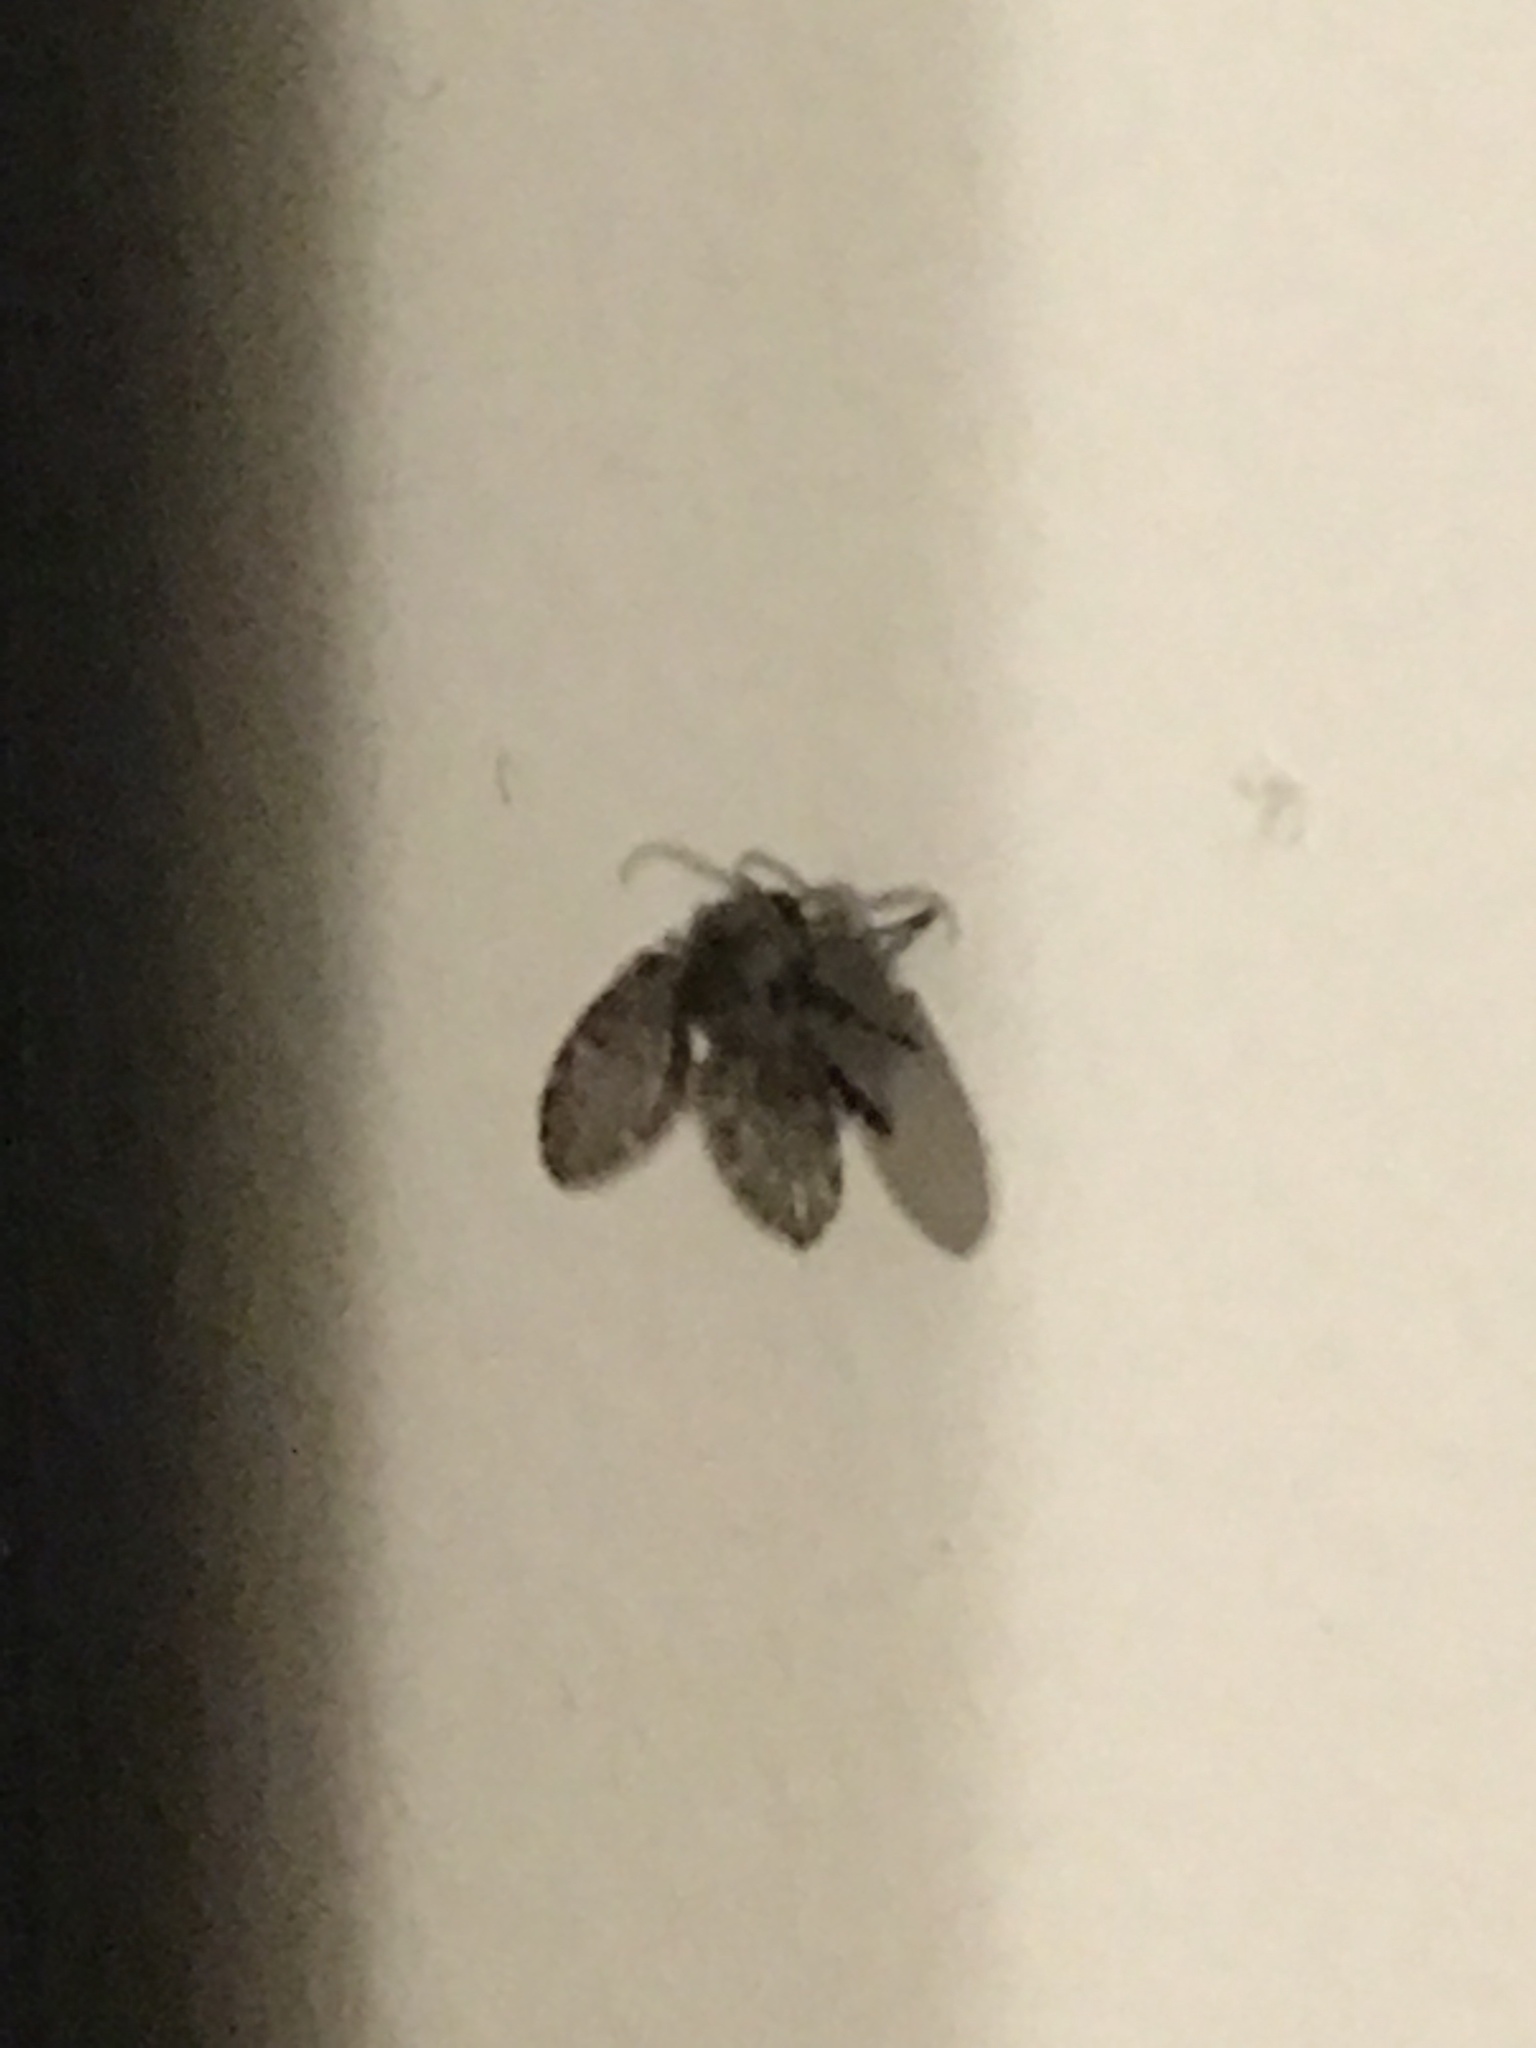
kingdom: Animalia
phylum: Arthropoda
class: Insecta
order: Diptera
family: Psychodidae
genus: Clogmia
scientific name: Clogmia albipunctatus
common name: White-spotted moth fly
